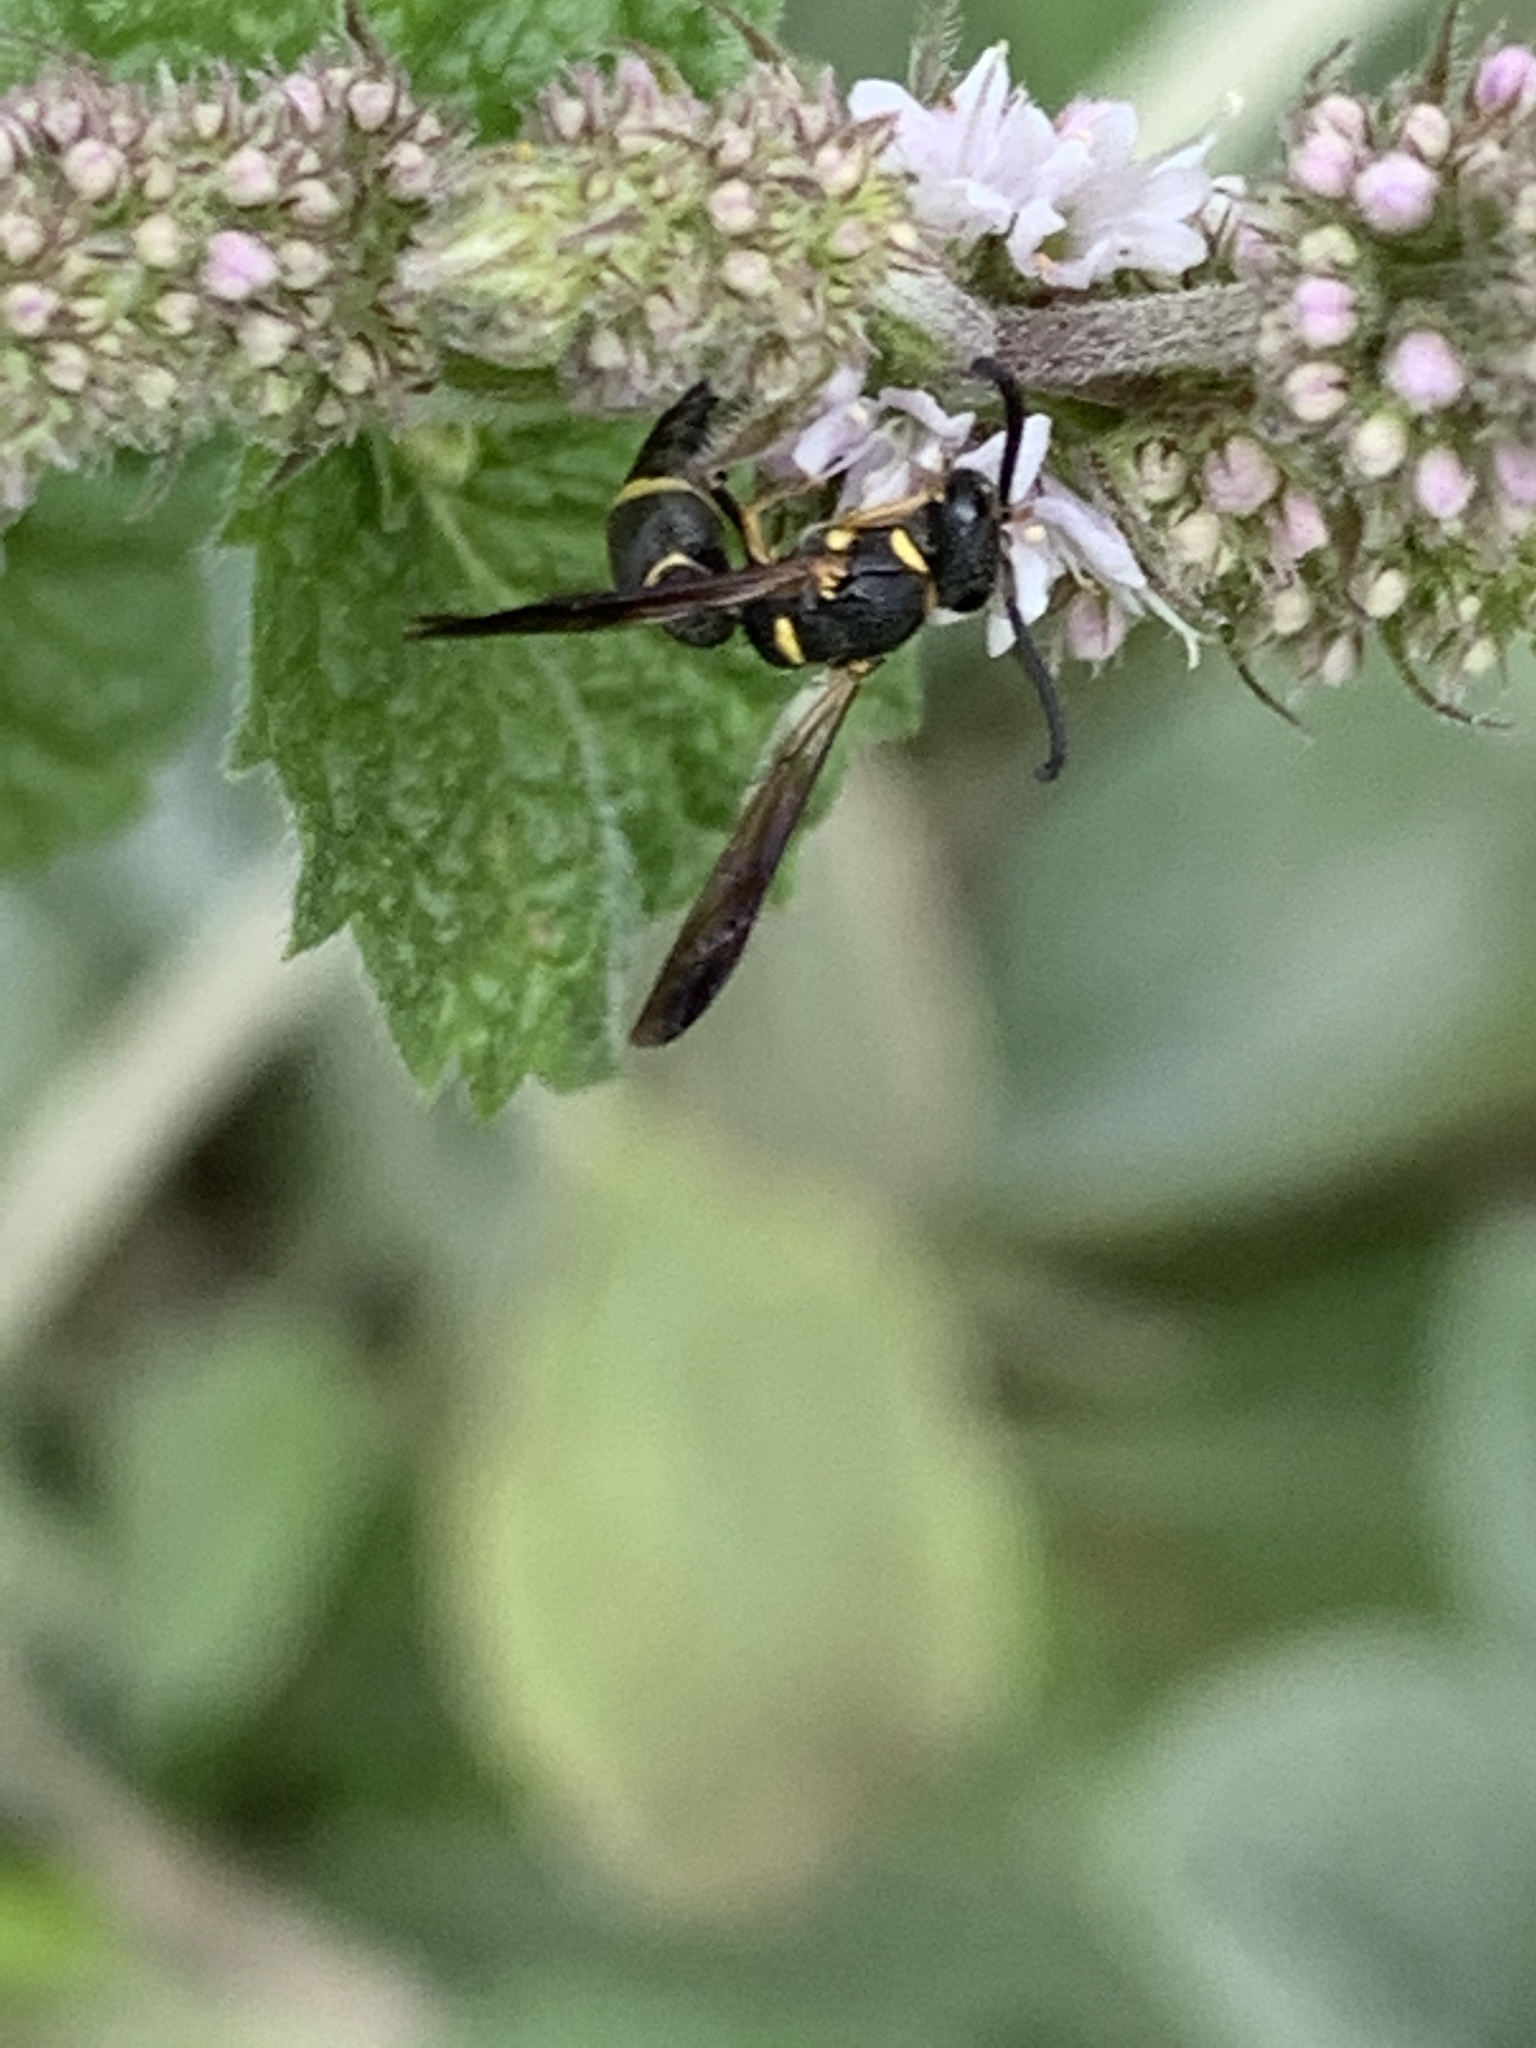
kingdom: Animalia
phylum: Arthropoda
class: Insecta
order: Hymenoptera
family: Eumenidae
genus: Parancistrocerus
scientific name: Parancistrocerus perennis
